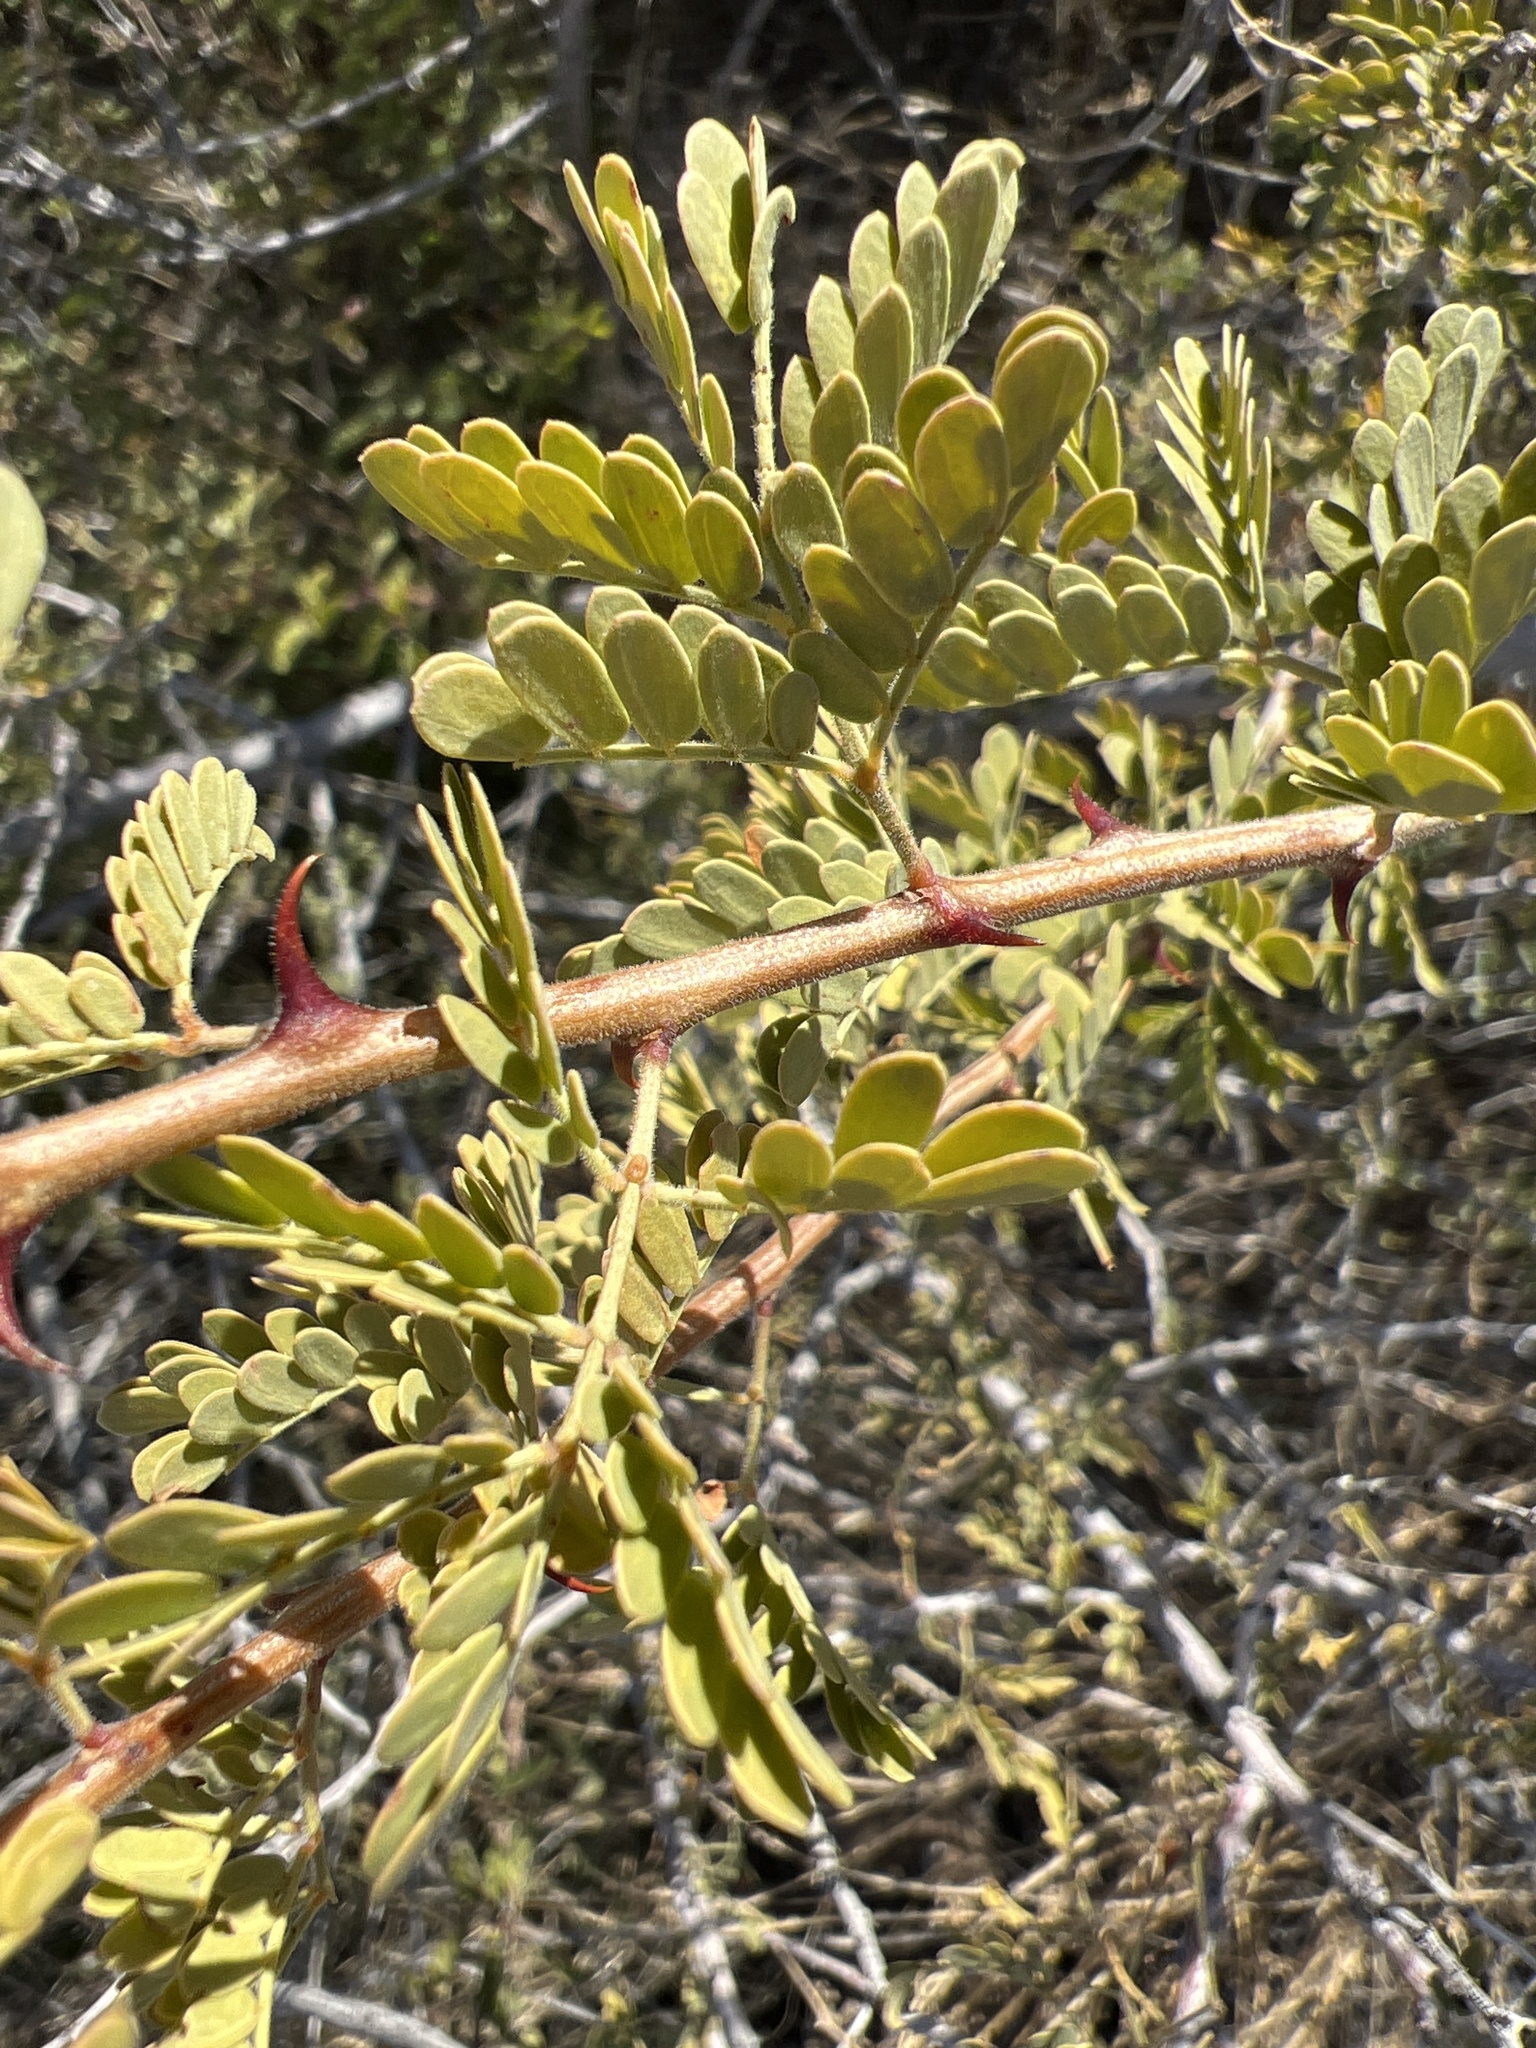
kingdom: Plantae
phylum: Tracheophyta
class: Magnoliopsida
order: Fabales
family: Fabaceae
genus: Senegalia
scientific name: Senegalia greggii
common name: Texas-mimosa
